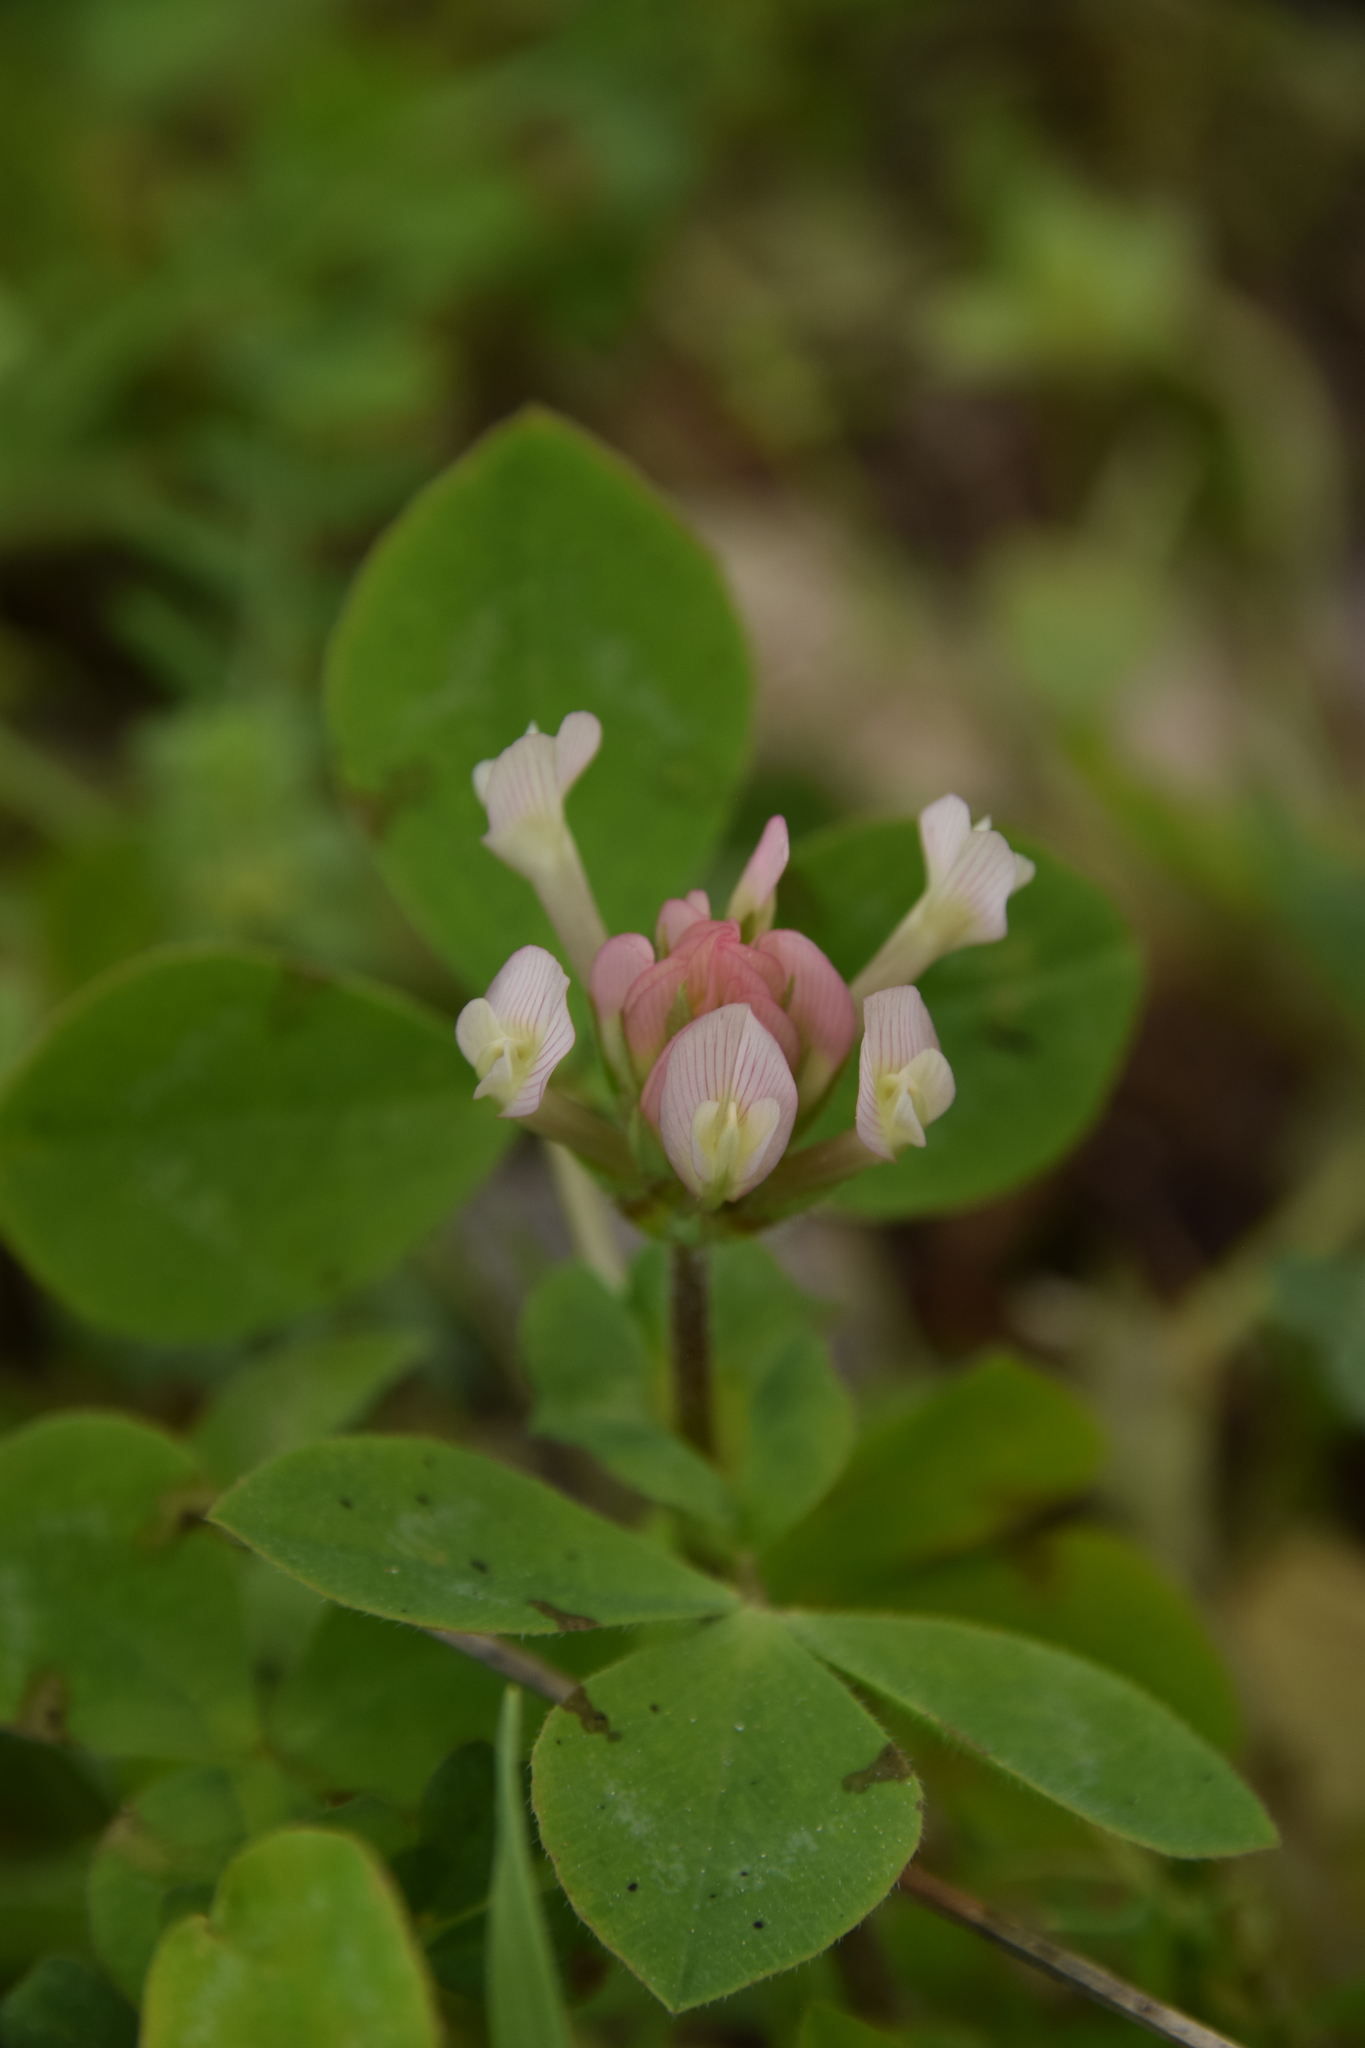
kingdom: Plantae
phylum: Tracheophyta
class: Magnoliopsida
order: Fabales
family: Fabaceae
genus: Trifolium
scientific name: Trifolium clypeatum
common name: Shield clover
